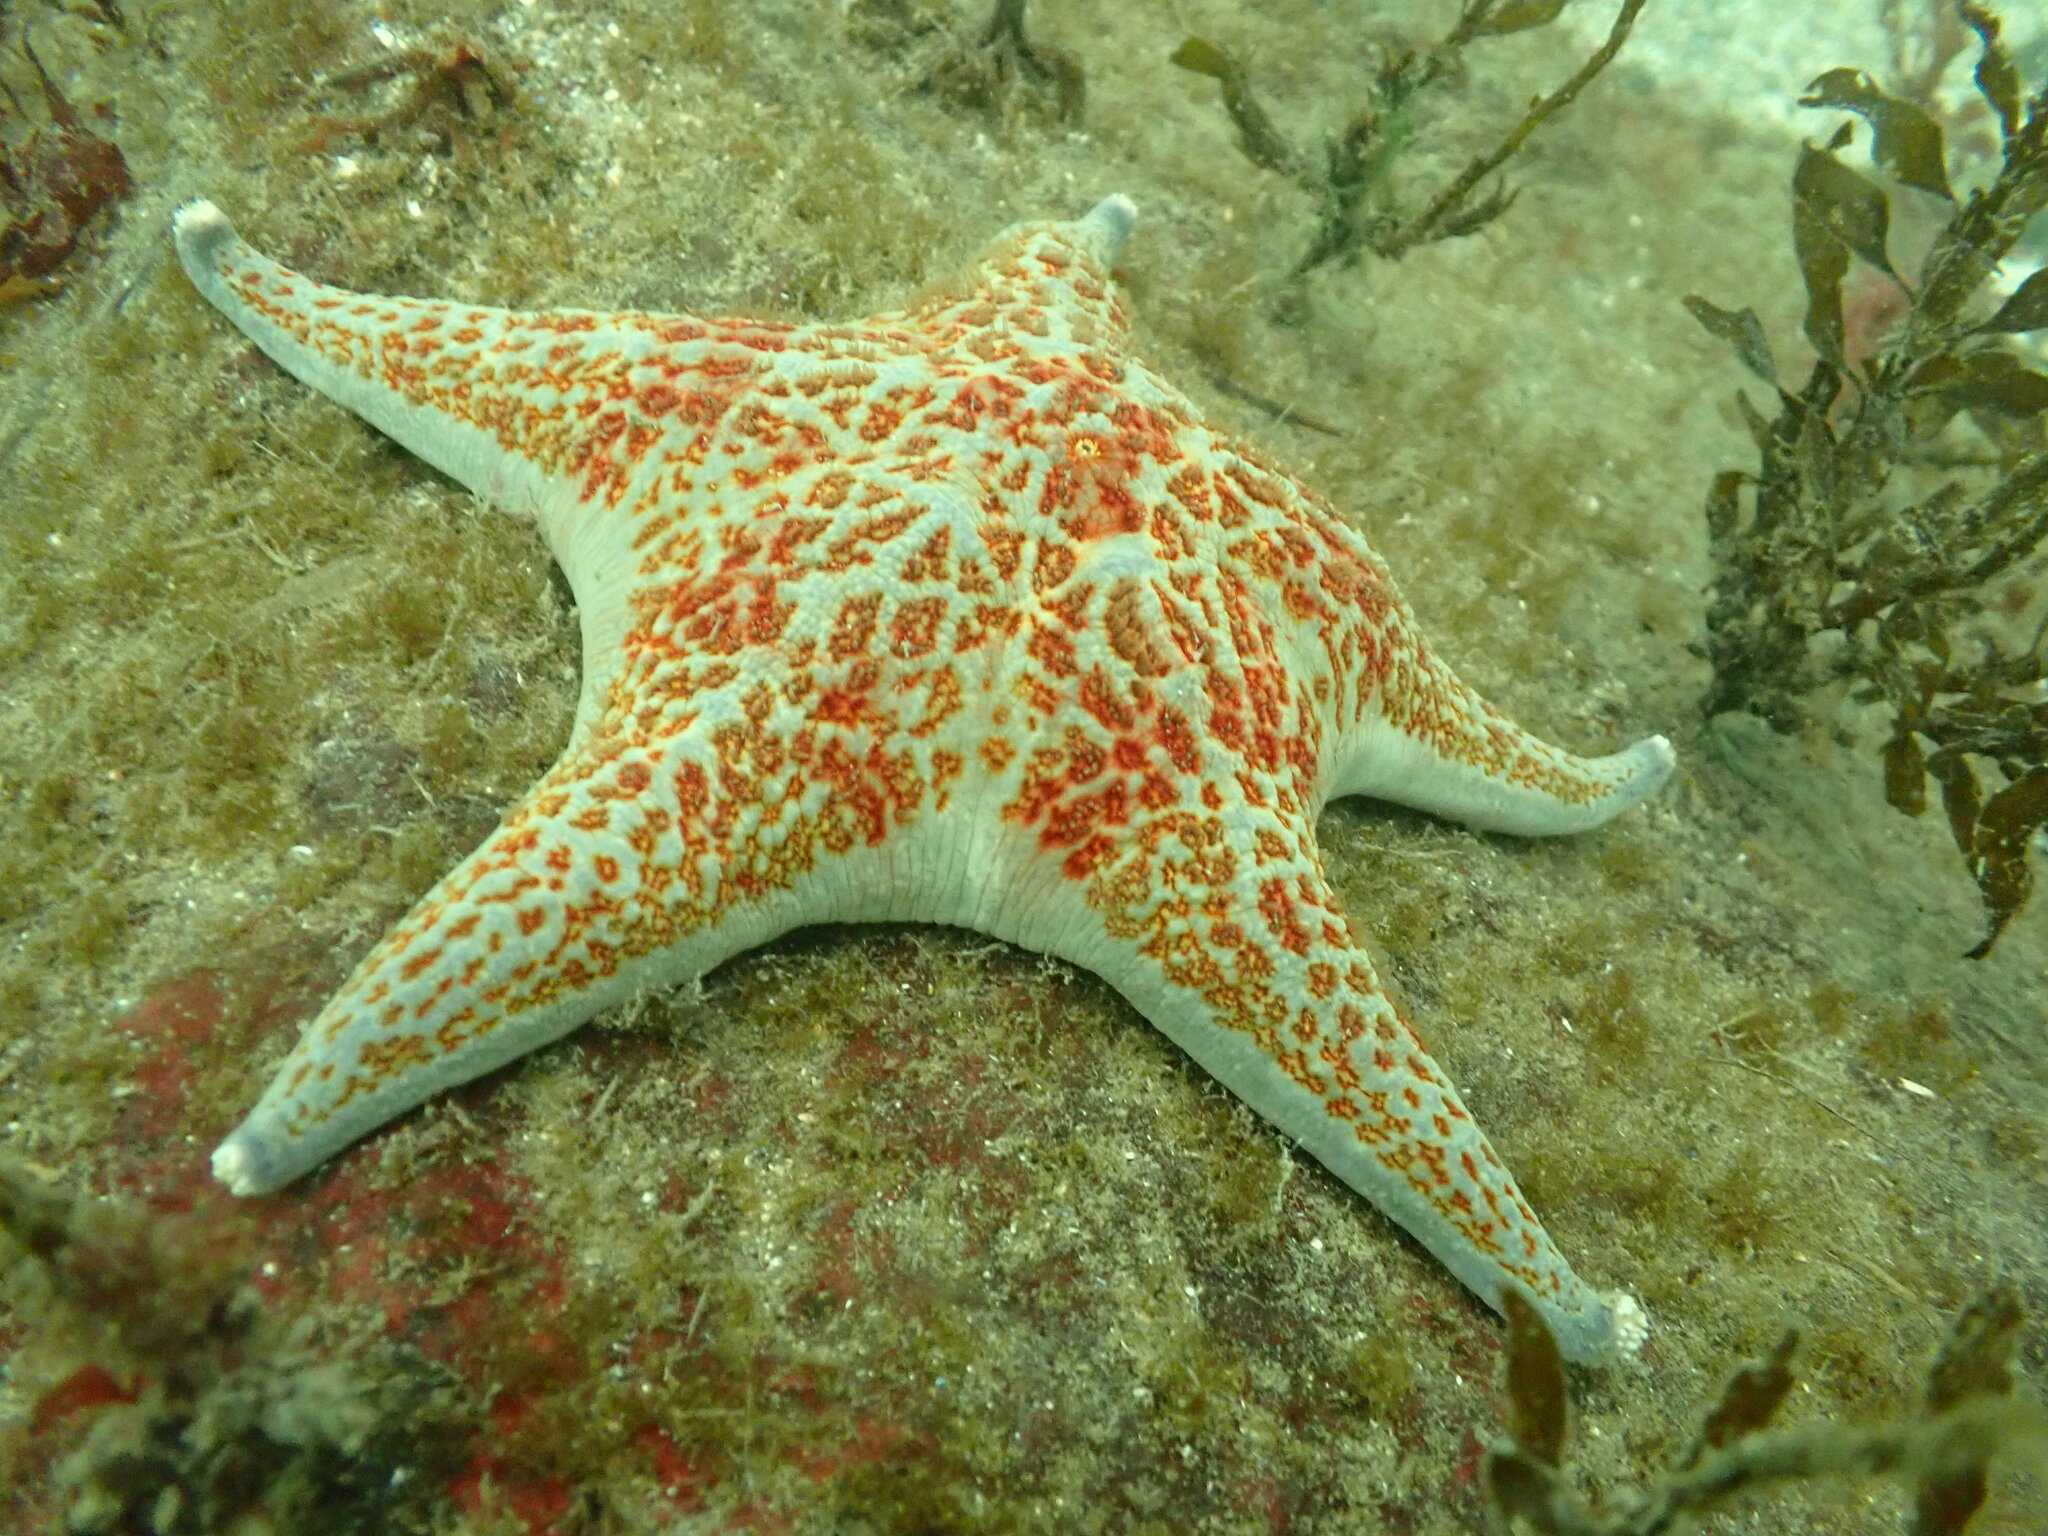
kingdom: Animalia
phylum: Echinodermata
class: Asteroidea
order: Valvatida
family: Asteropseidae
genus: Dermasterias
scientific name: Dermasterias imbricata
